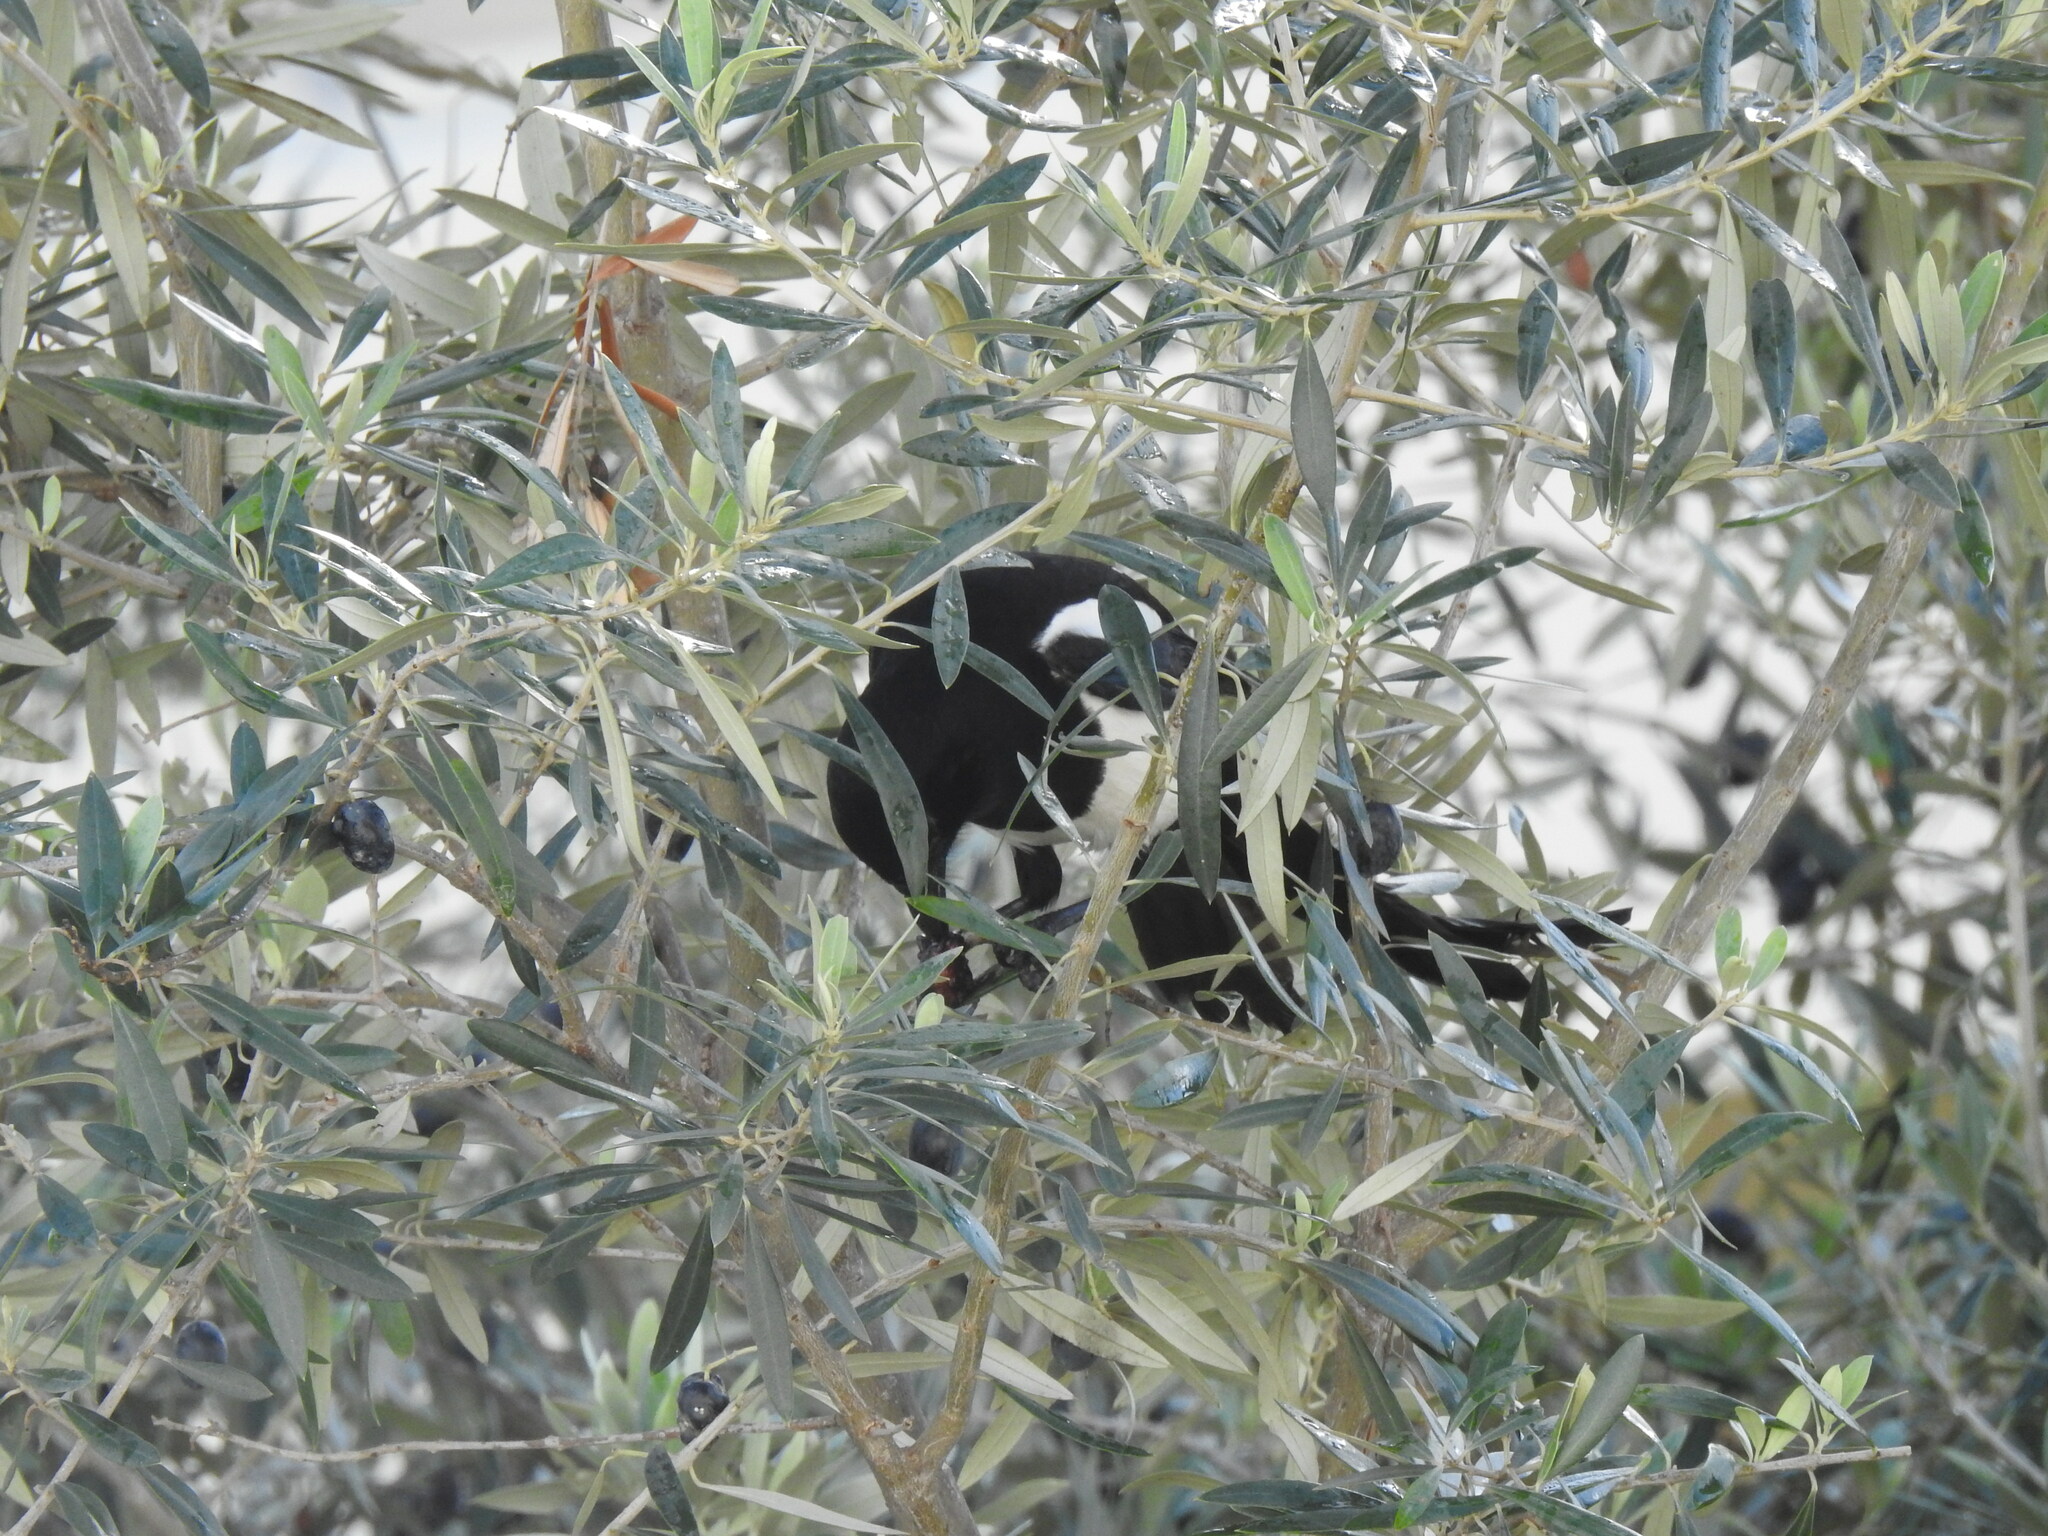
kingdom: Animalia
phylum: Chordata
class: Aves
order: Passeriformes
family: Corvidae
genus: Pica
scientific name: Pica pica
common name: Eurasian magpie
